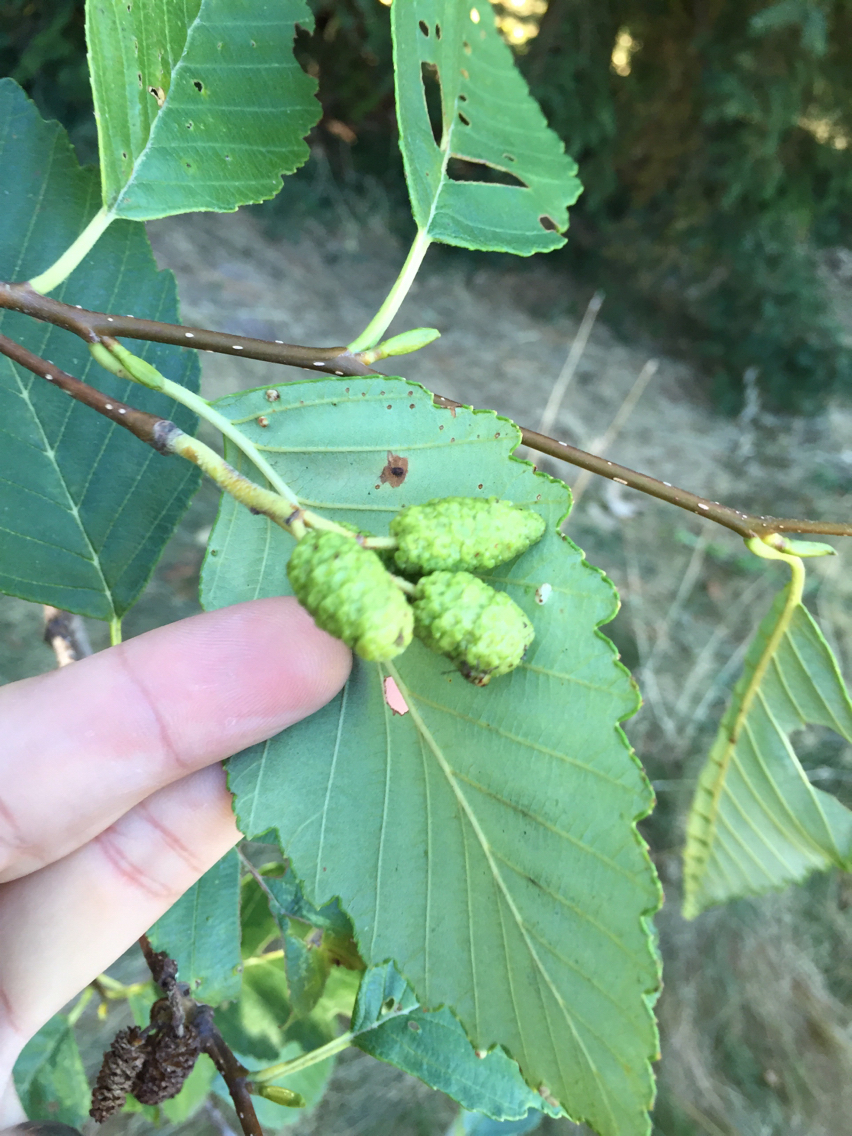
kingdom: Plantae
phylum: Tracheophyta
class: Magnoliopsida
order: Fagales
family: Betulaceae
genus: Alnus
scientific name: Alnus rubra
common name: Red alder
